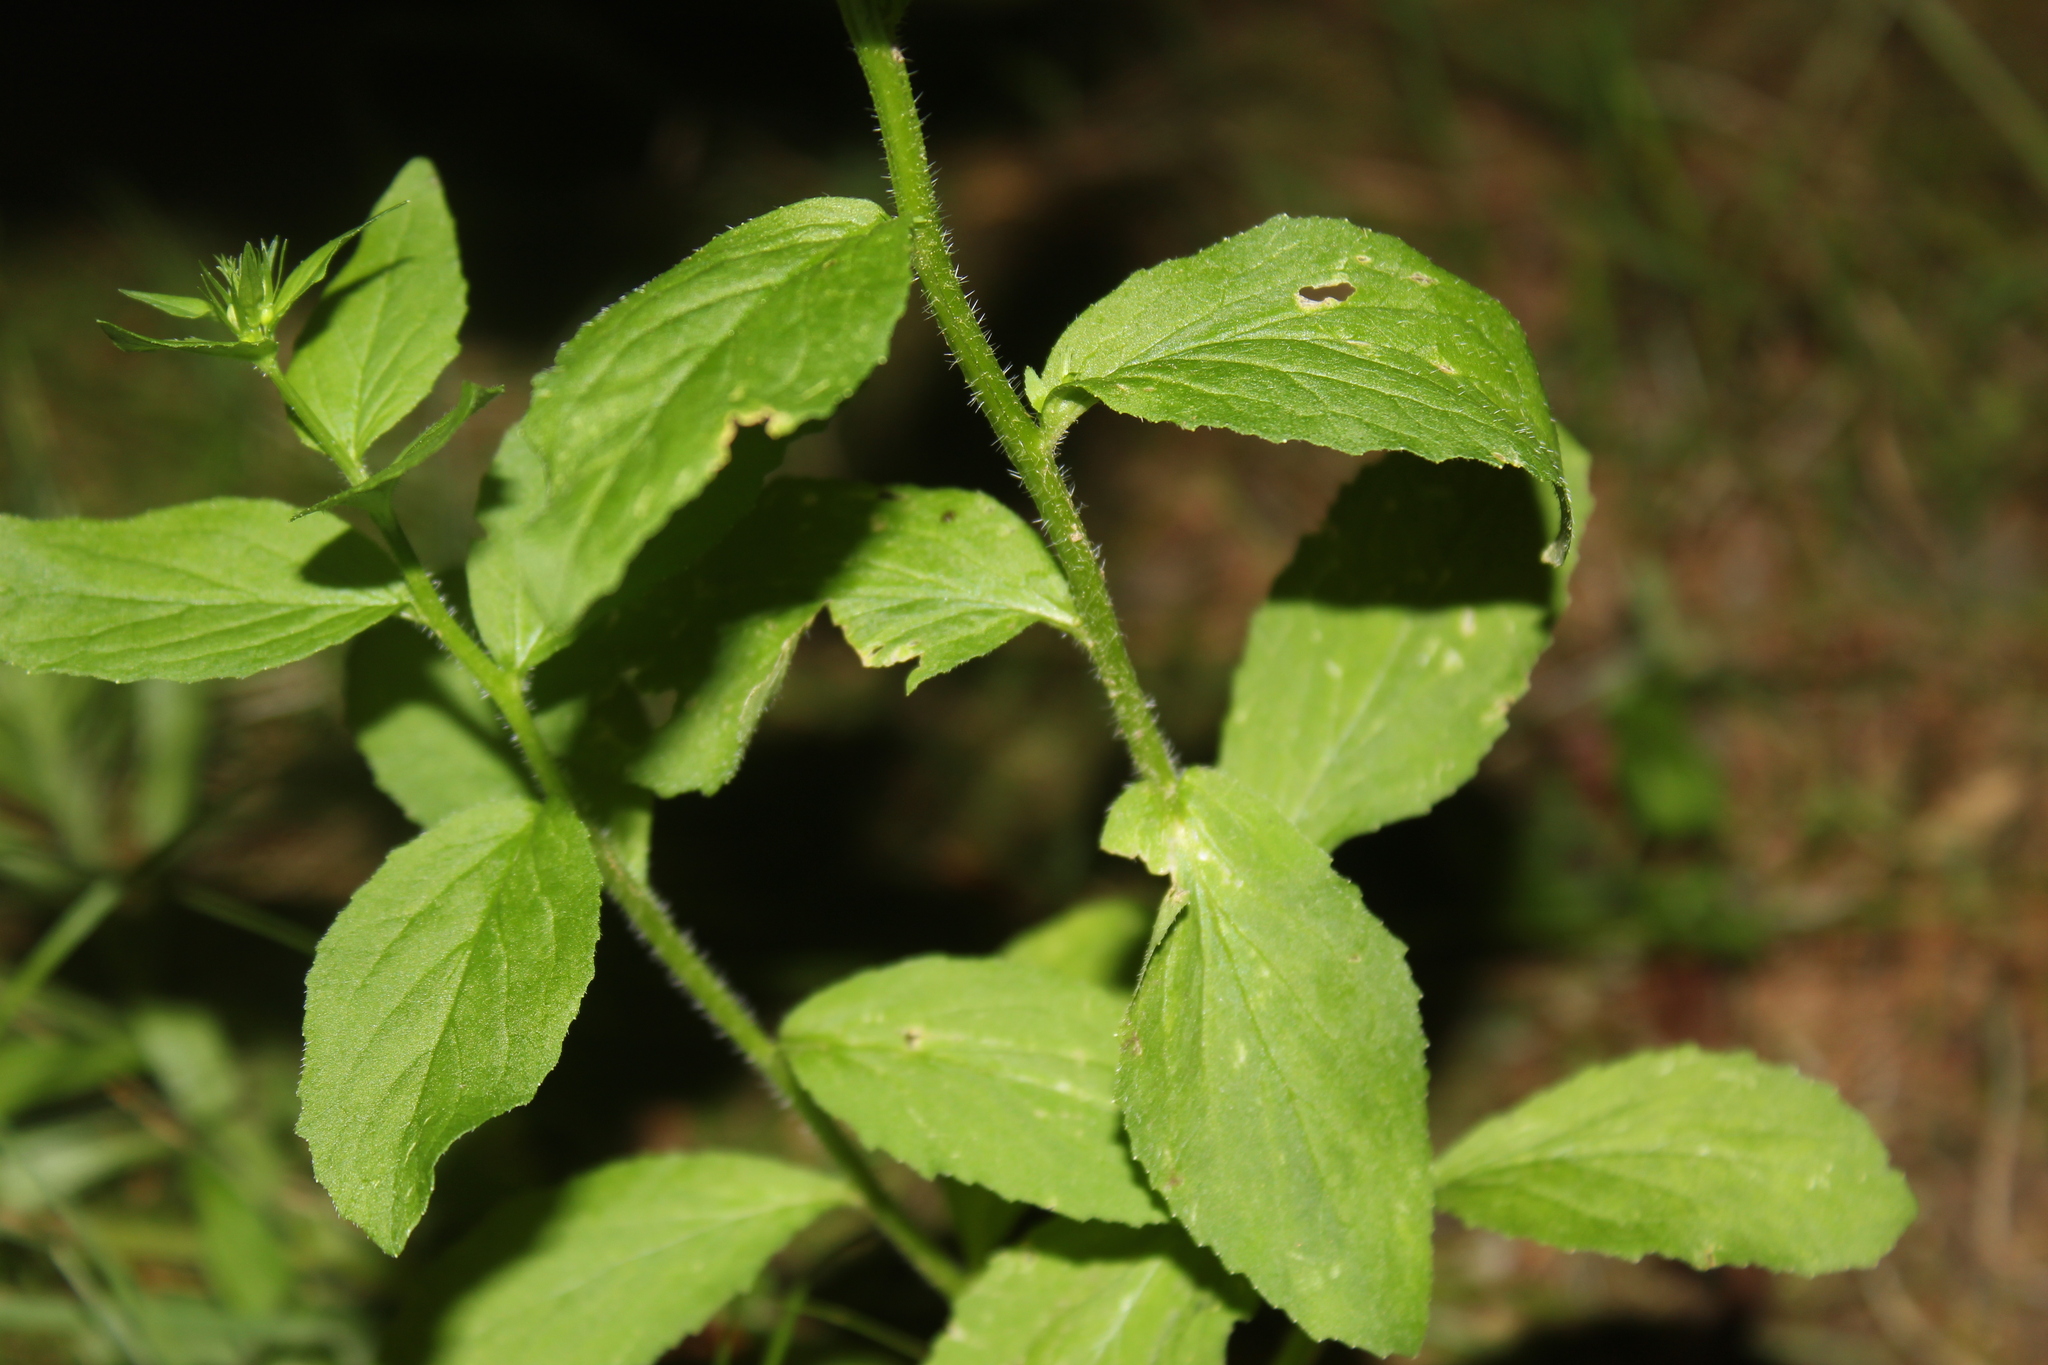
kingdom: Plantae
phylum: Tracheophyta
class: Magnoliopsida
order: Asterales
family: Campanulaceae
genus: Lobelia
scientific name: Lobelia inflata
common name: Indian tobacco
